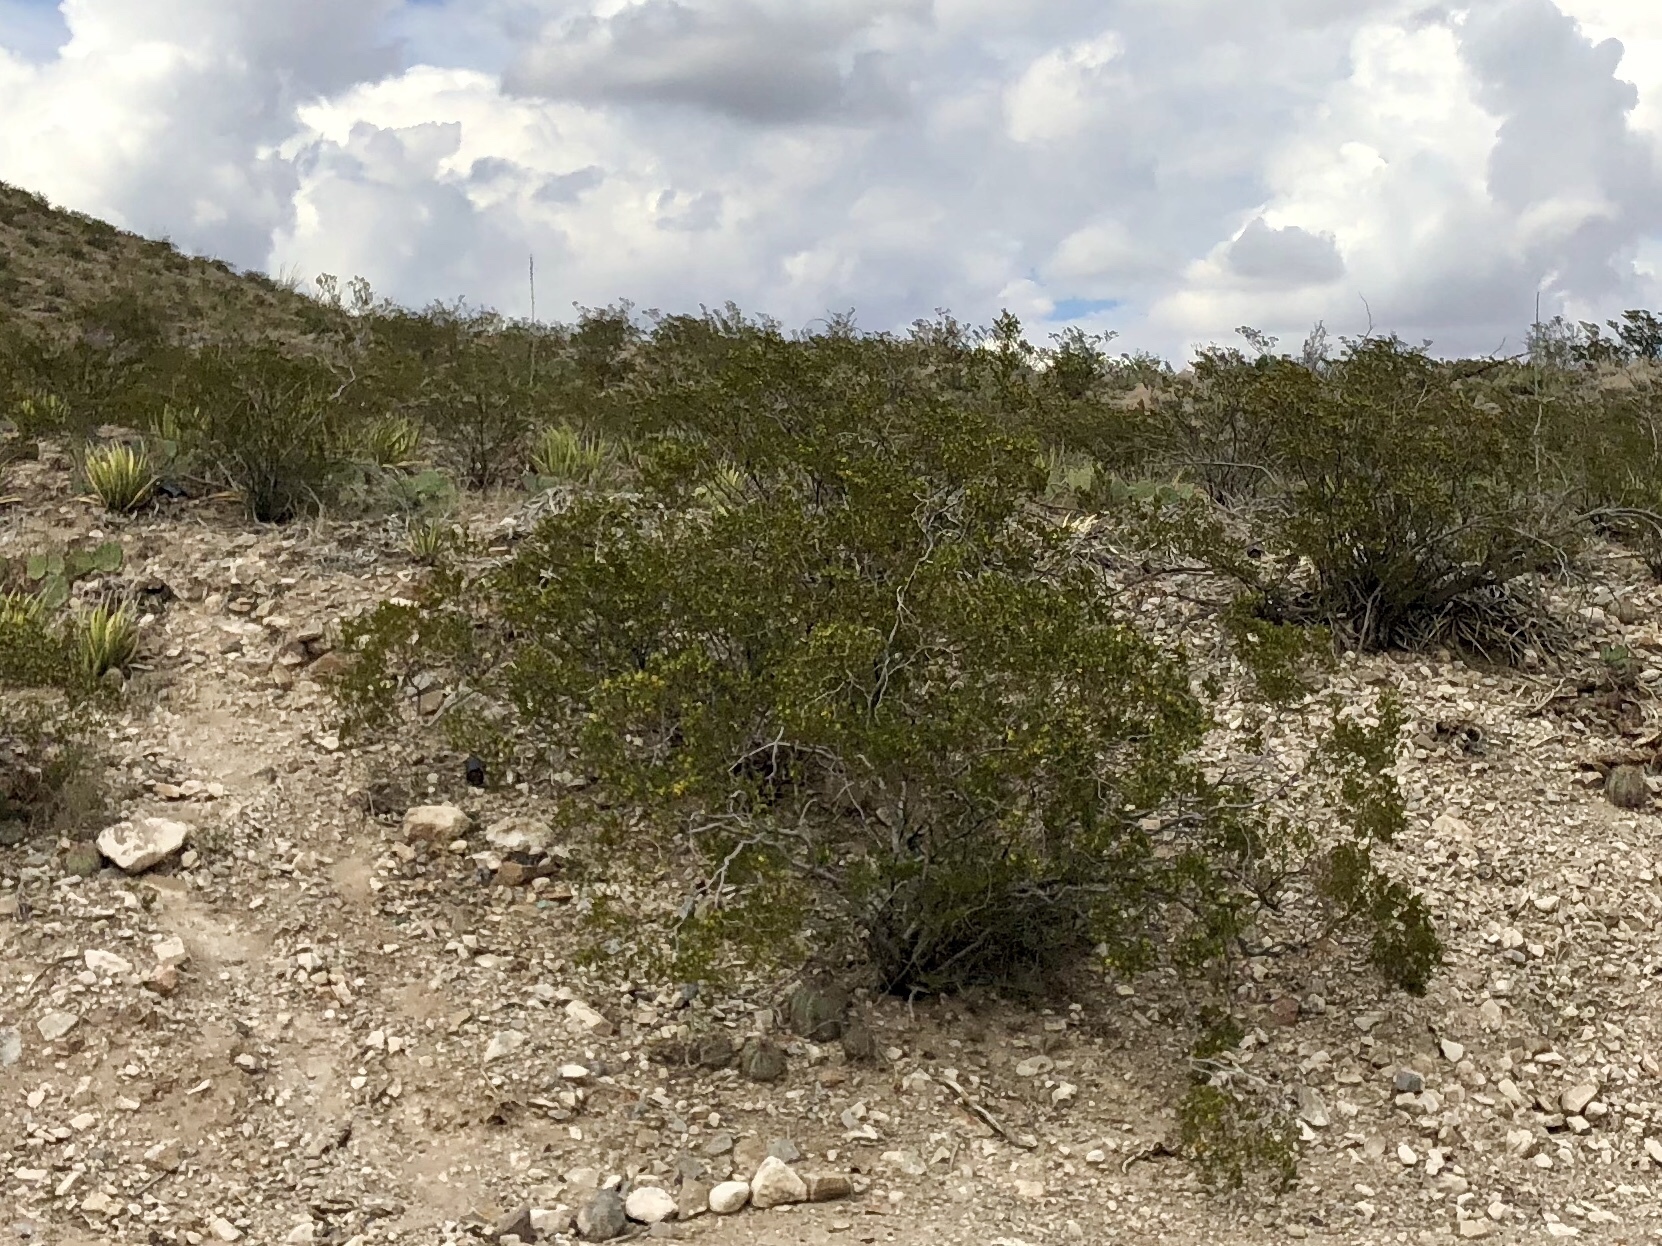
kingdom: Plantae
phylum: Tracheophyta
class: Magnoliopsida
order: Zygophyllales
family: Zygophyllaceae
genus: Larrea
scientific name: Larrea tridentata
